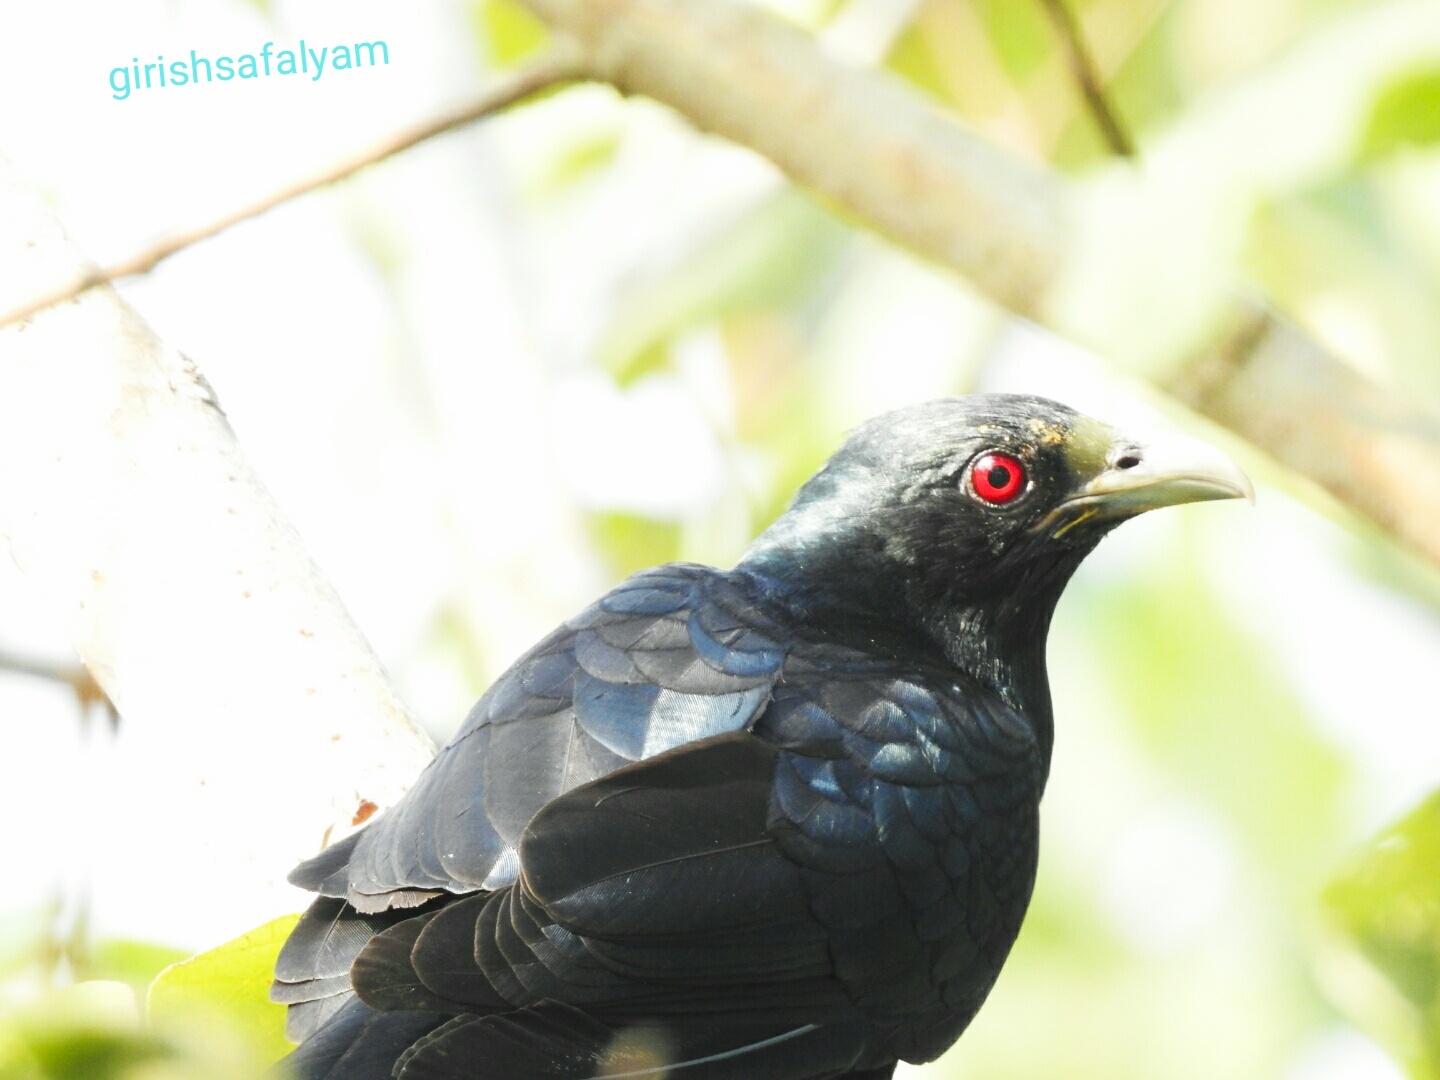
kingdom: Animalia
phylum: Chordata
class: Aves
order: Cuculiformes
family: Cuculidae
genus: Eudynamys
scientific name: Eudynamys scolopaceus
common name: Asian koel
